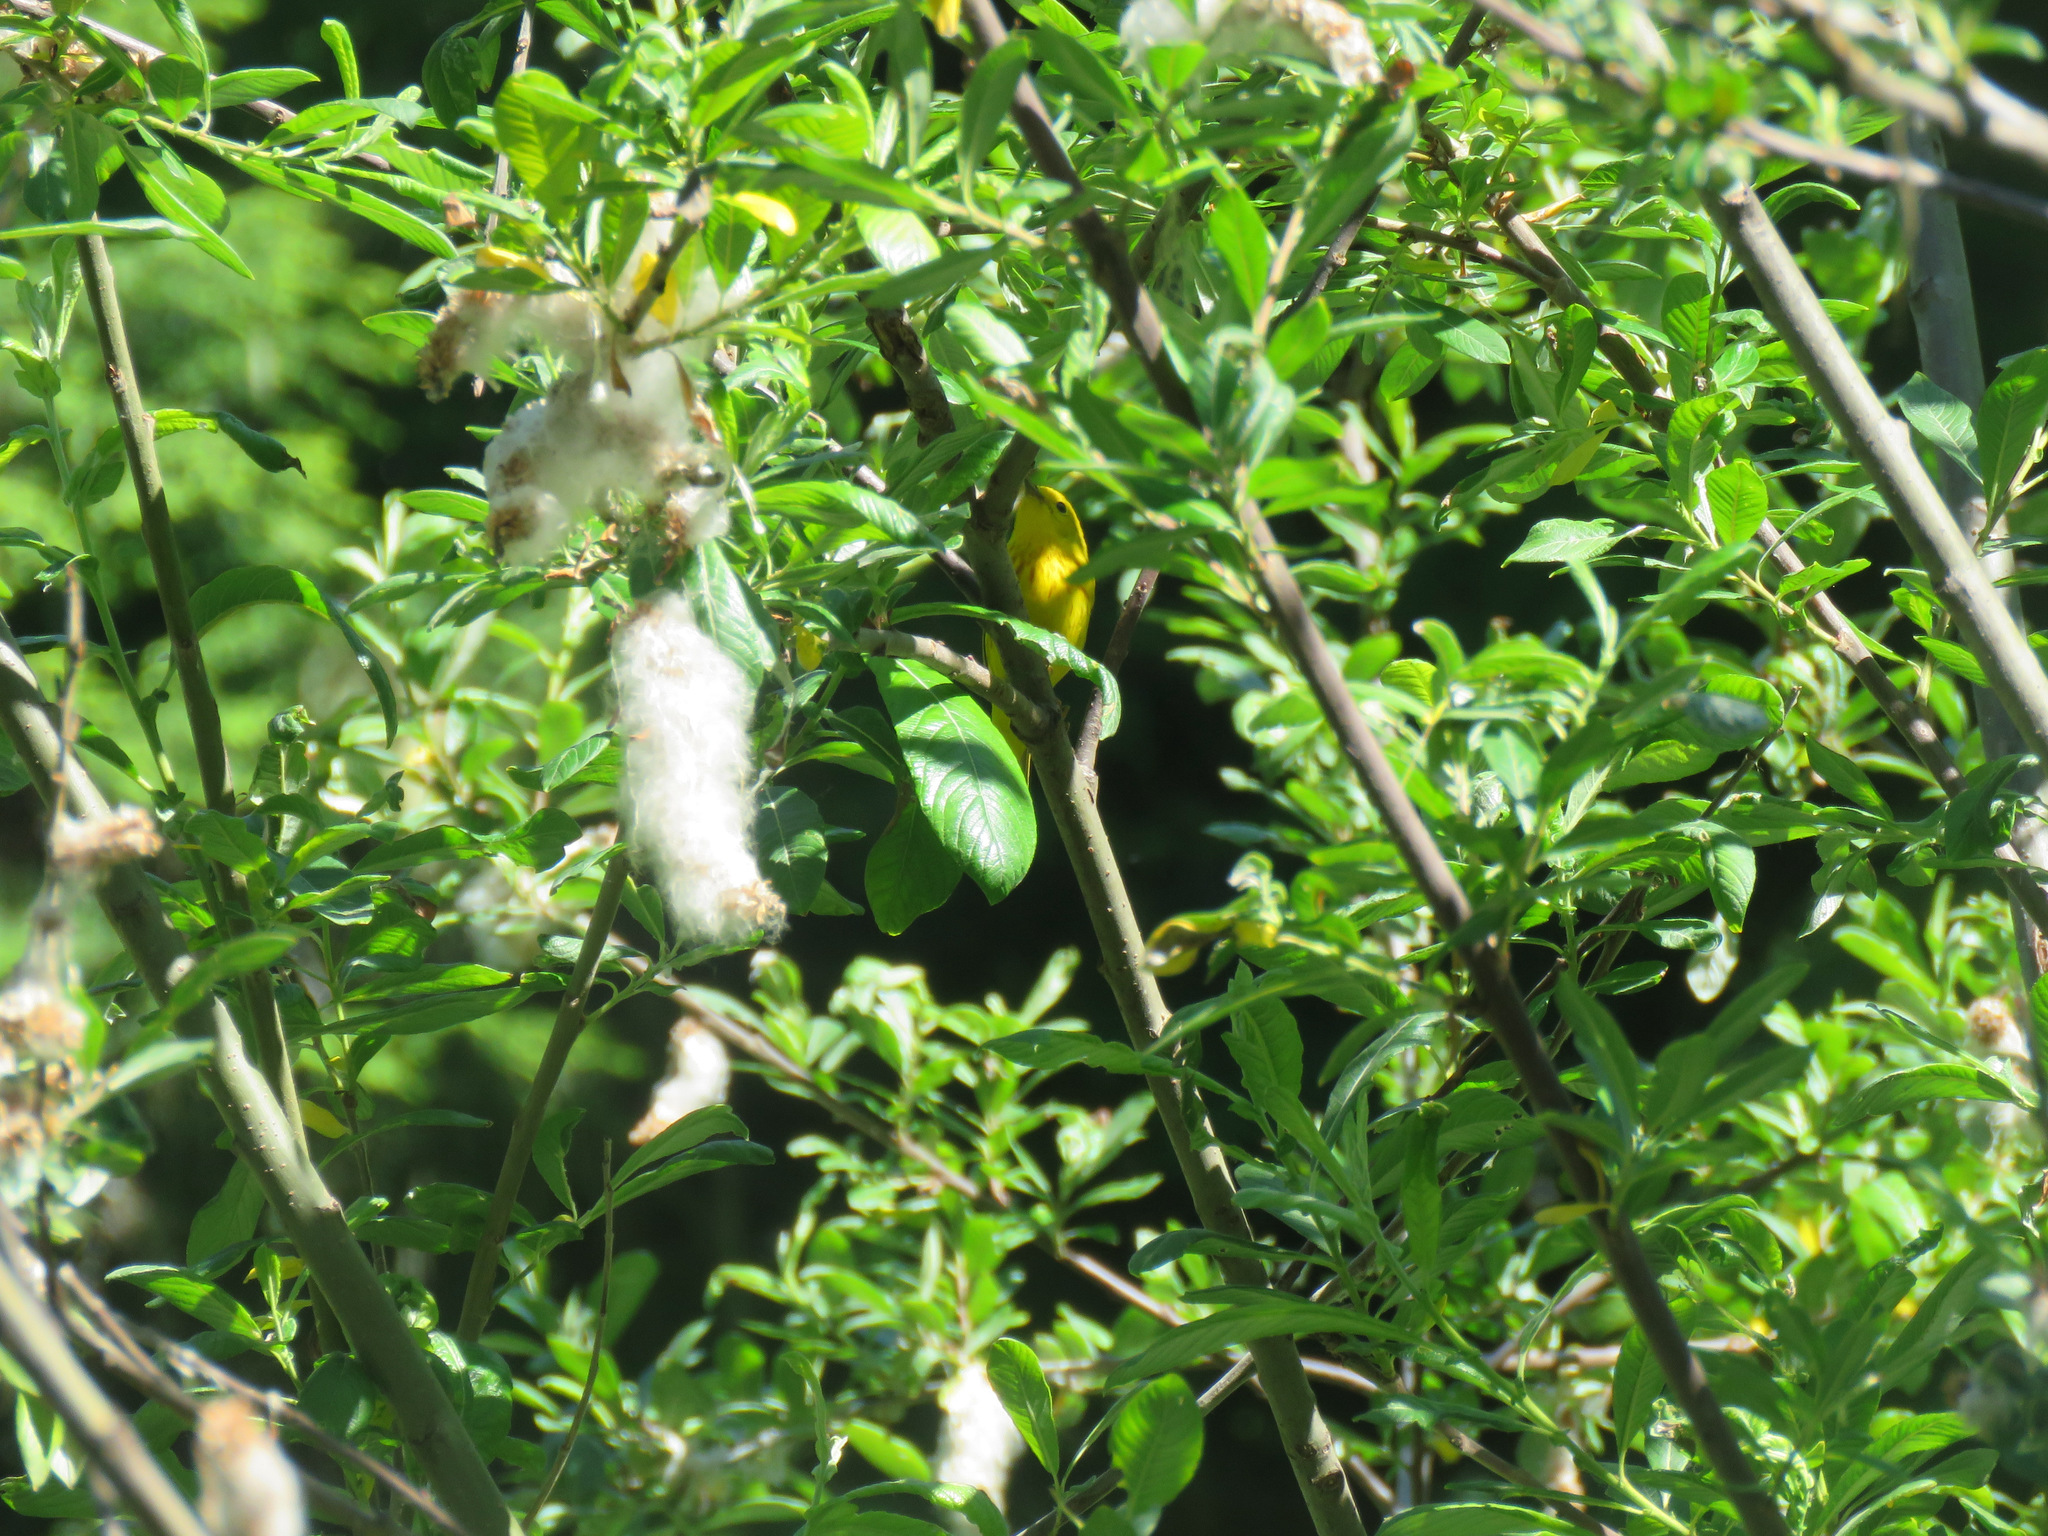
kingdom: Animalia
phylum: Chordata
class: Aves
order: Passeriformes
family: Parulidae
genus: Setophaga
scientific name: Setophaga petechia
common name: Yellow warbler
